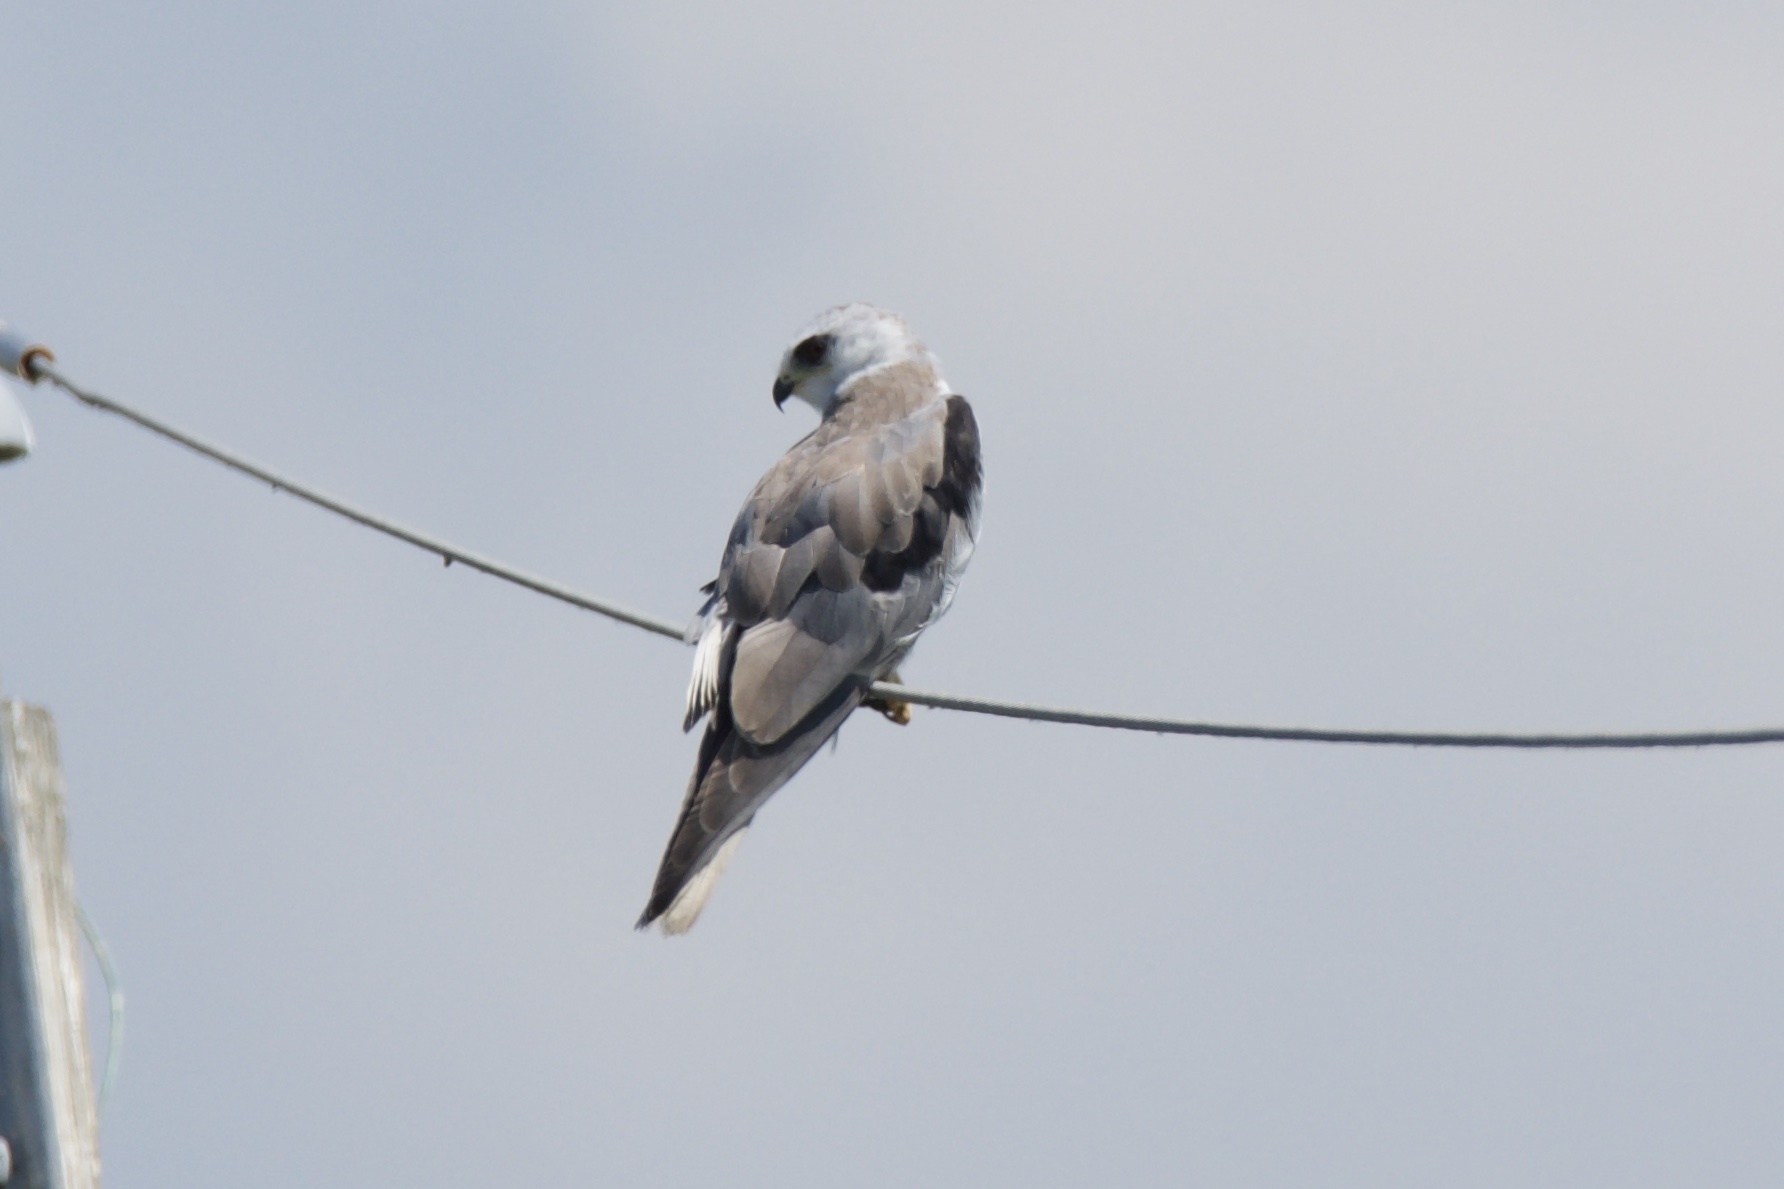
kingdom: Animalia
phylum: Chordata
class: Aves
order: Accipitriformes
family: Accipitridae
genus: Elanus
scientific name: Elanus leucurus
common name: White-tailed kite
